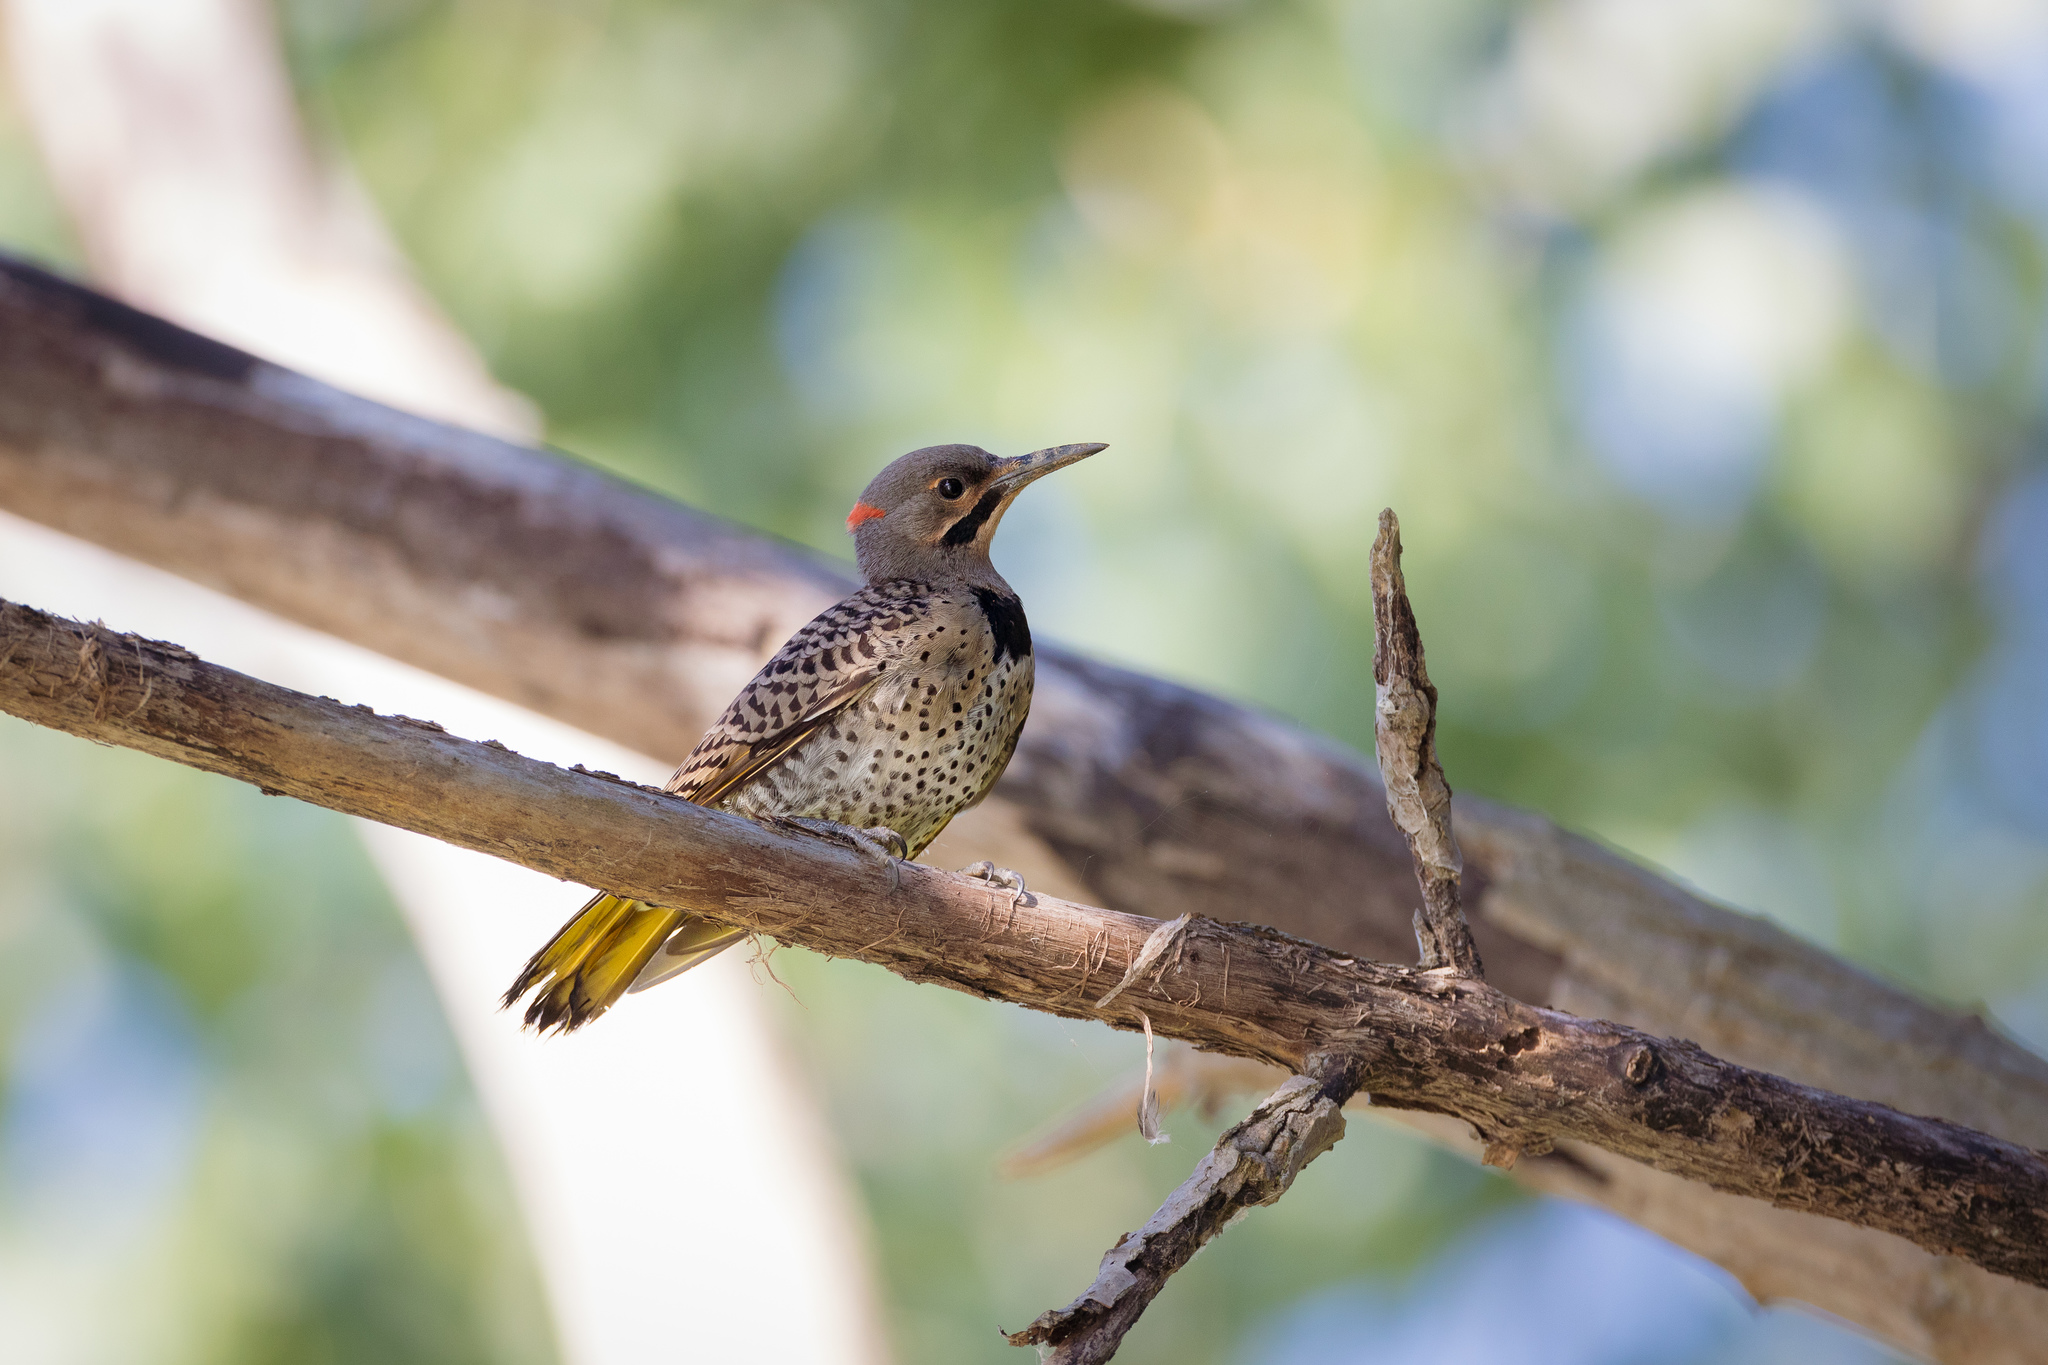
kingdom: Animalia
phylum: Chordata
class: Aves
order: Piciformes
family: Picidae
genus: Colaptes
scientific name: Colaptes auratus
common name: Northern flicker
